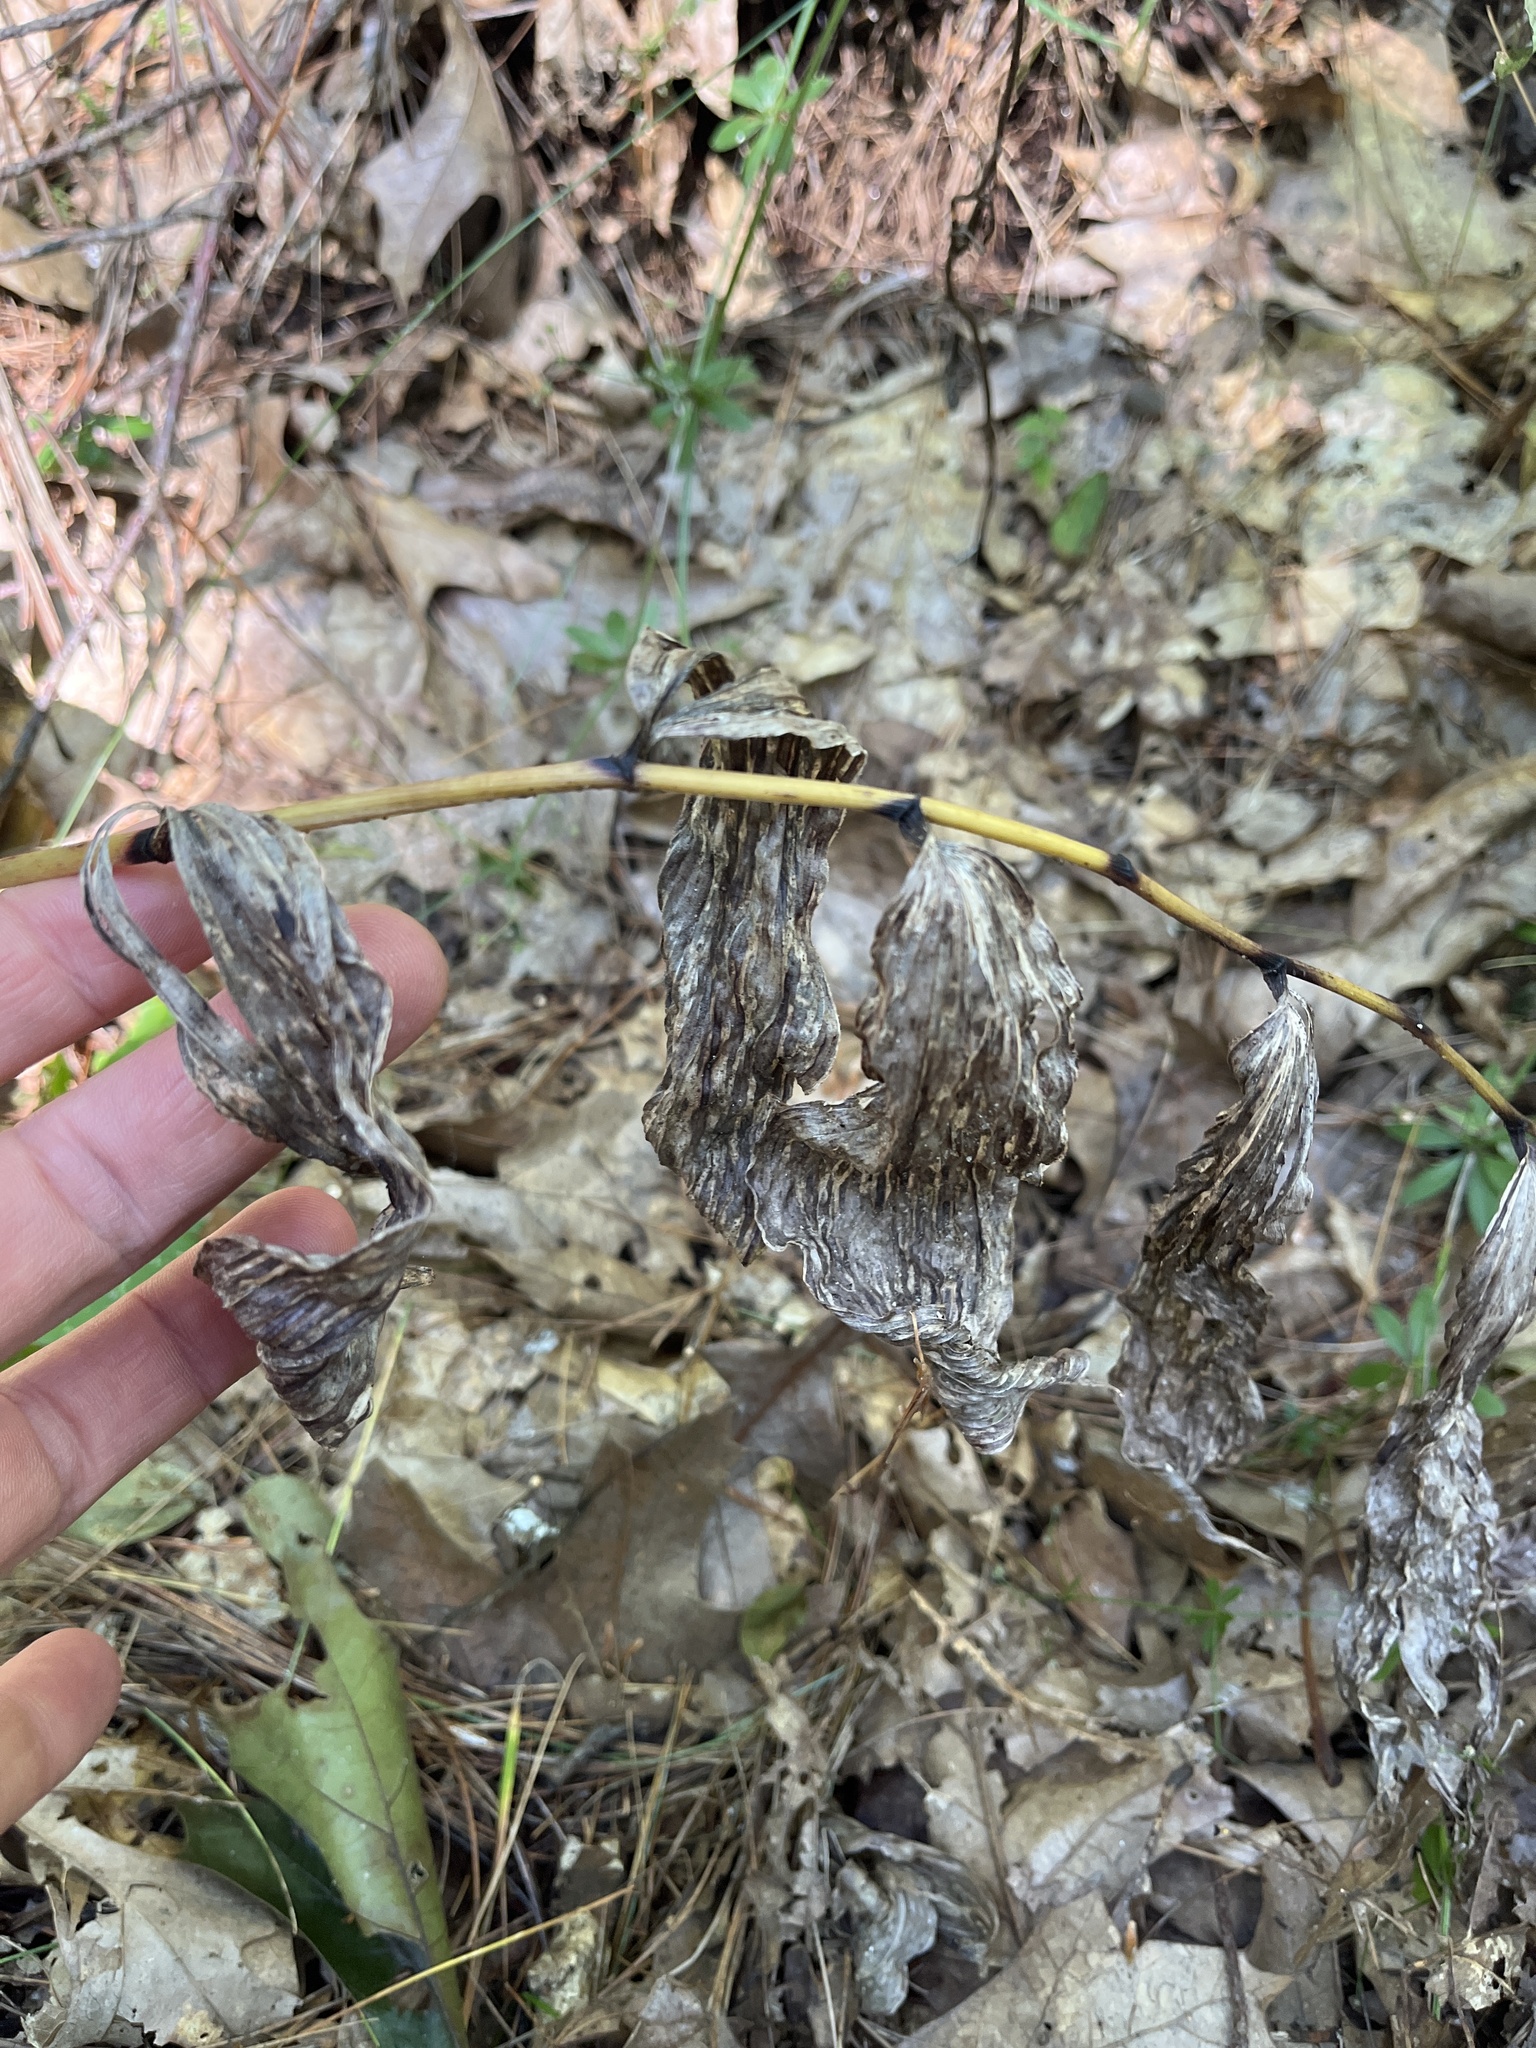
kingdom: Plantae
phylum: Tracheophyta
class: Liliopsida
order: Asparagales
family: Asparagaceae
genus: Maianthemum
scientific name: Maianthemum racemosum
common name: False spikenard
